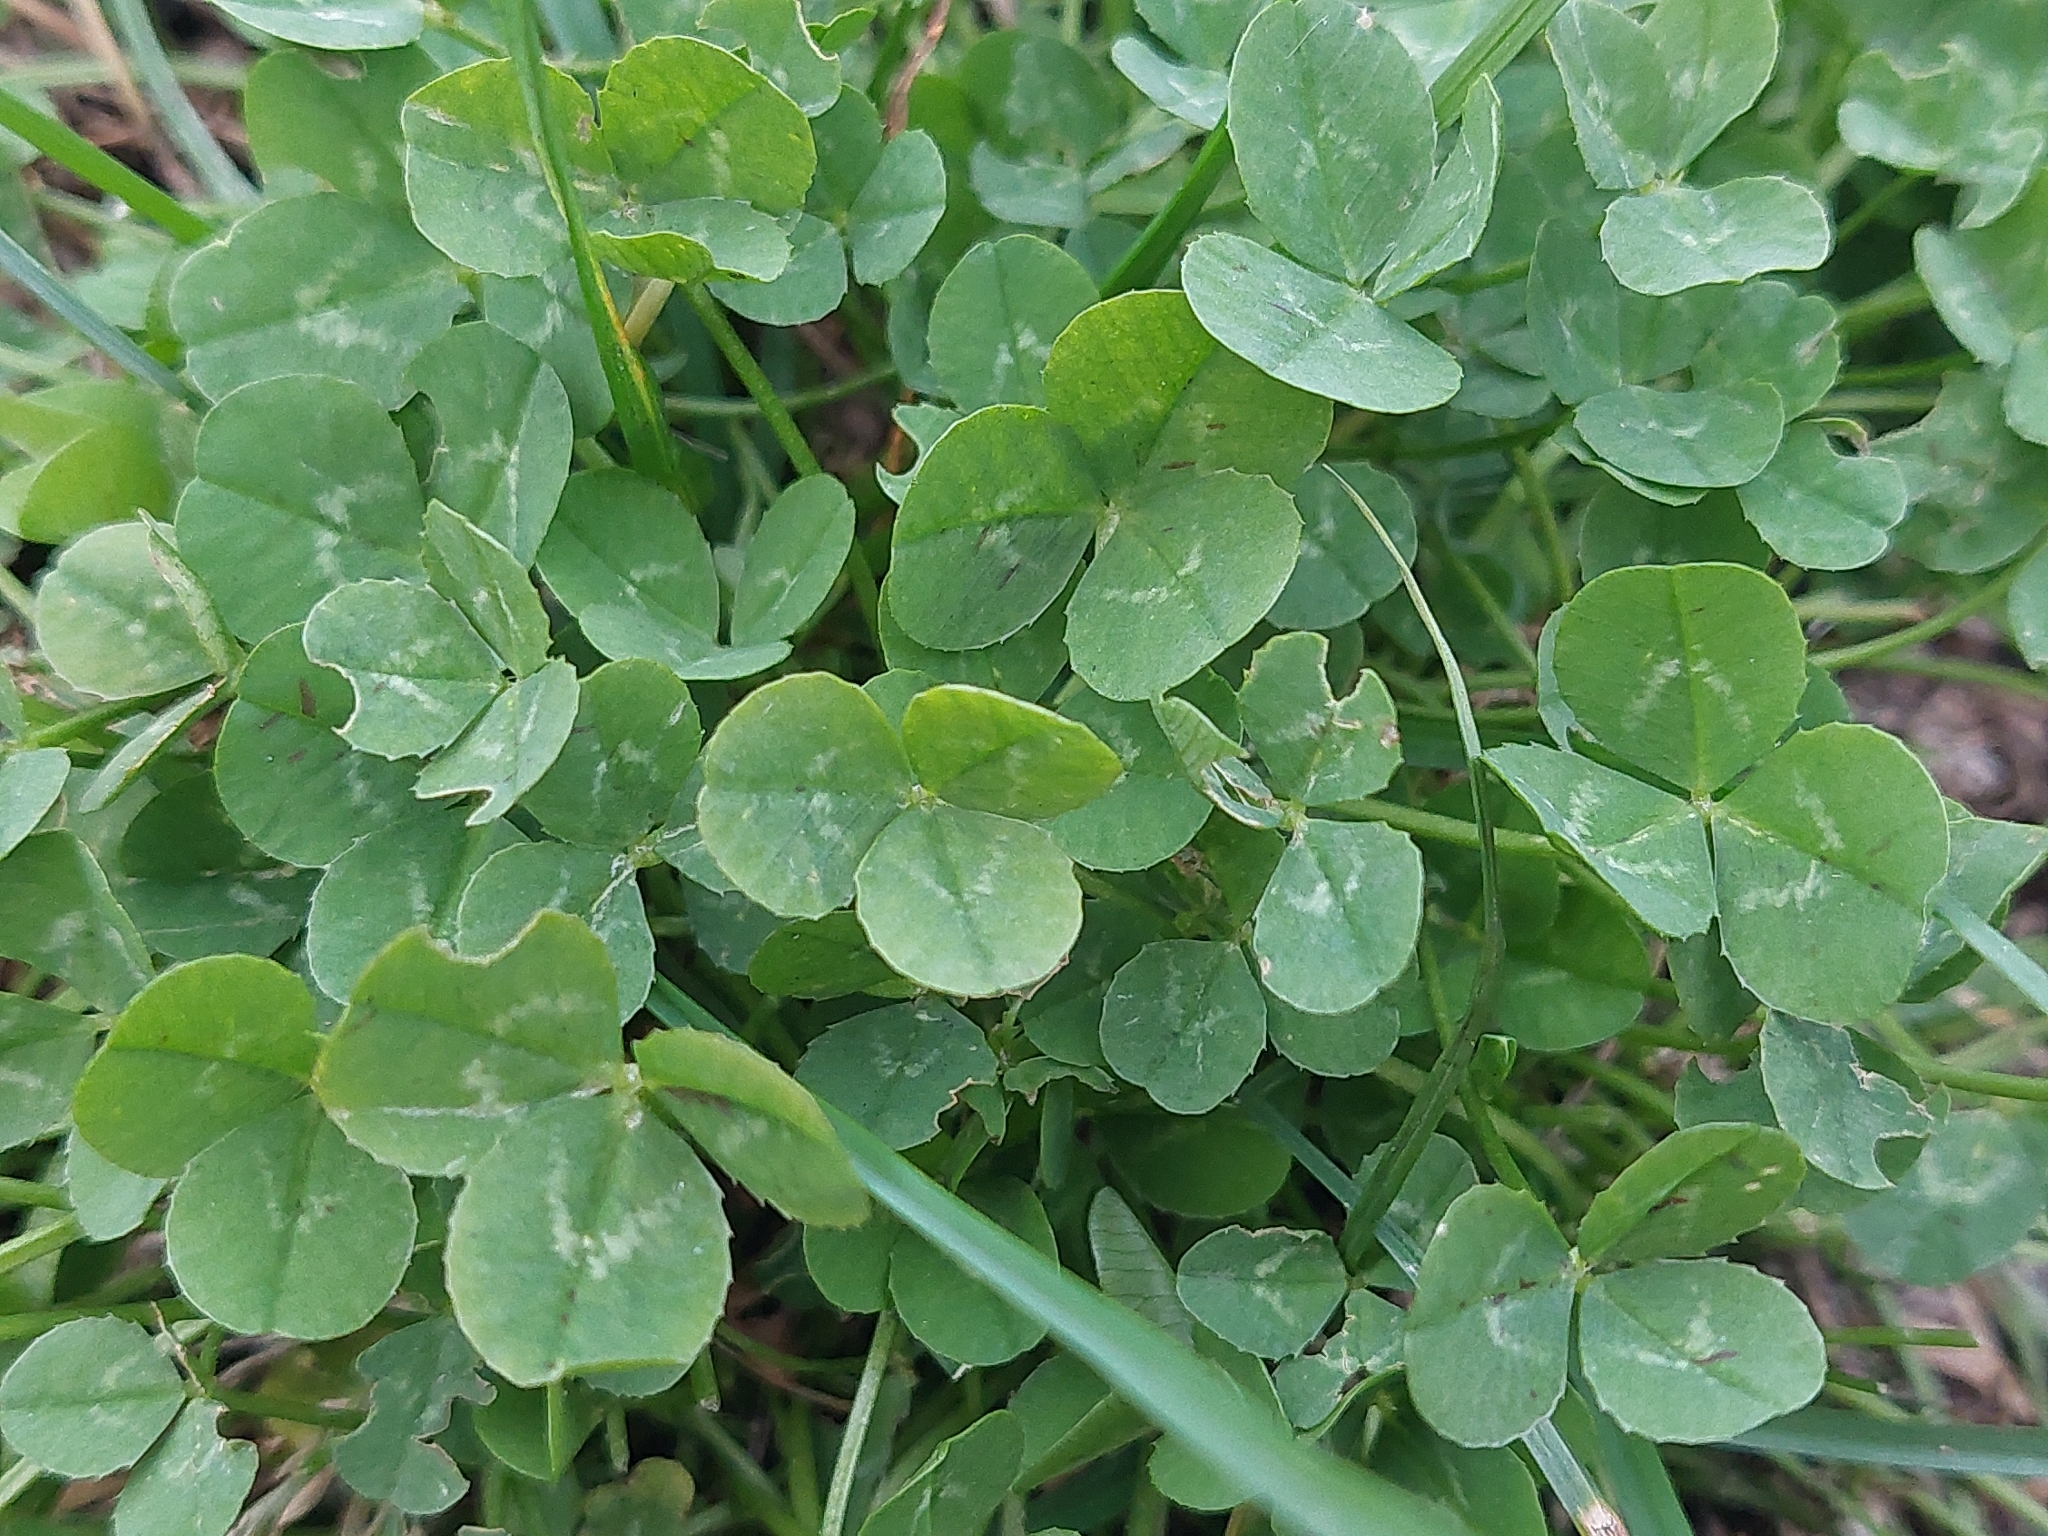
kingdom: Plantae
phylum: Tracheophyta
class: Magnoliopsida
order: Fabales
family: Fabaceae
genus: Trifolium
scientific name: Trifolium repens
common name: White clover
